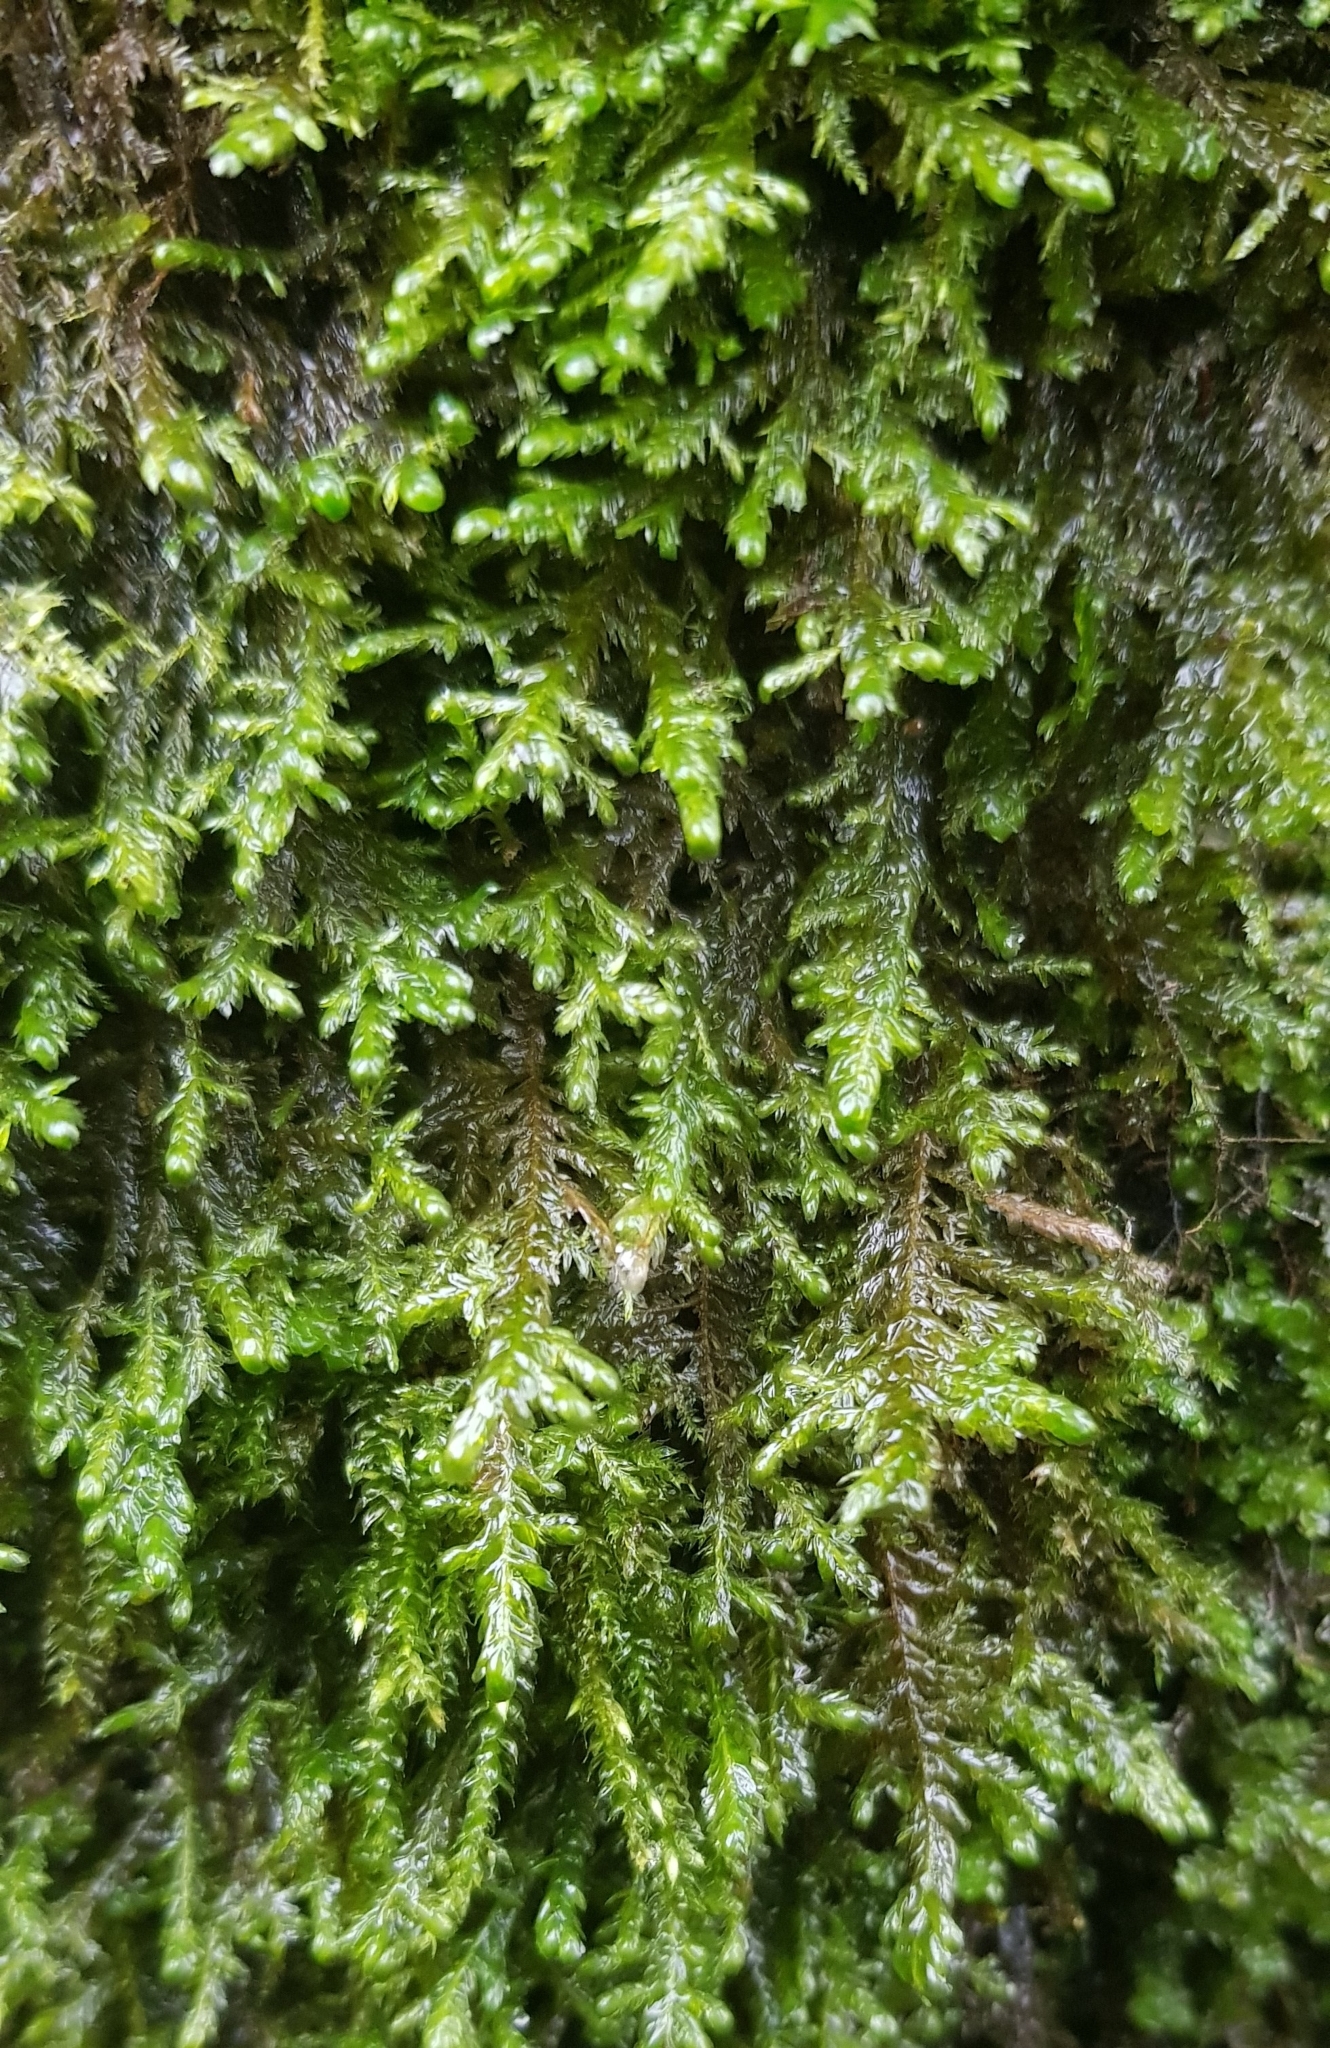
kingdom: Plantae
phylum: Bryophyta
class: Bryopsida
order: Hypnales
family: Neckeraceae
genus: Alleniella
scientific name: Alleniella complanata
